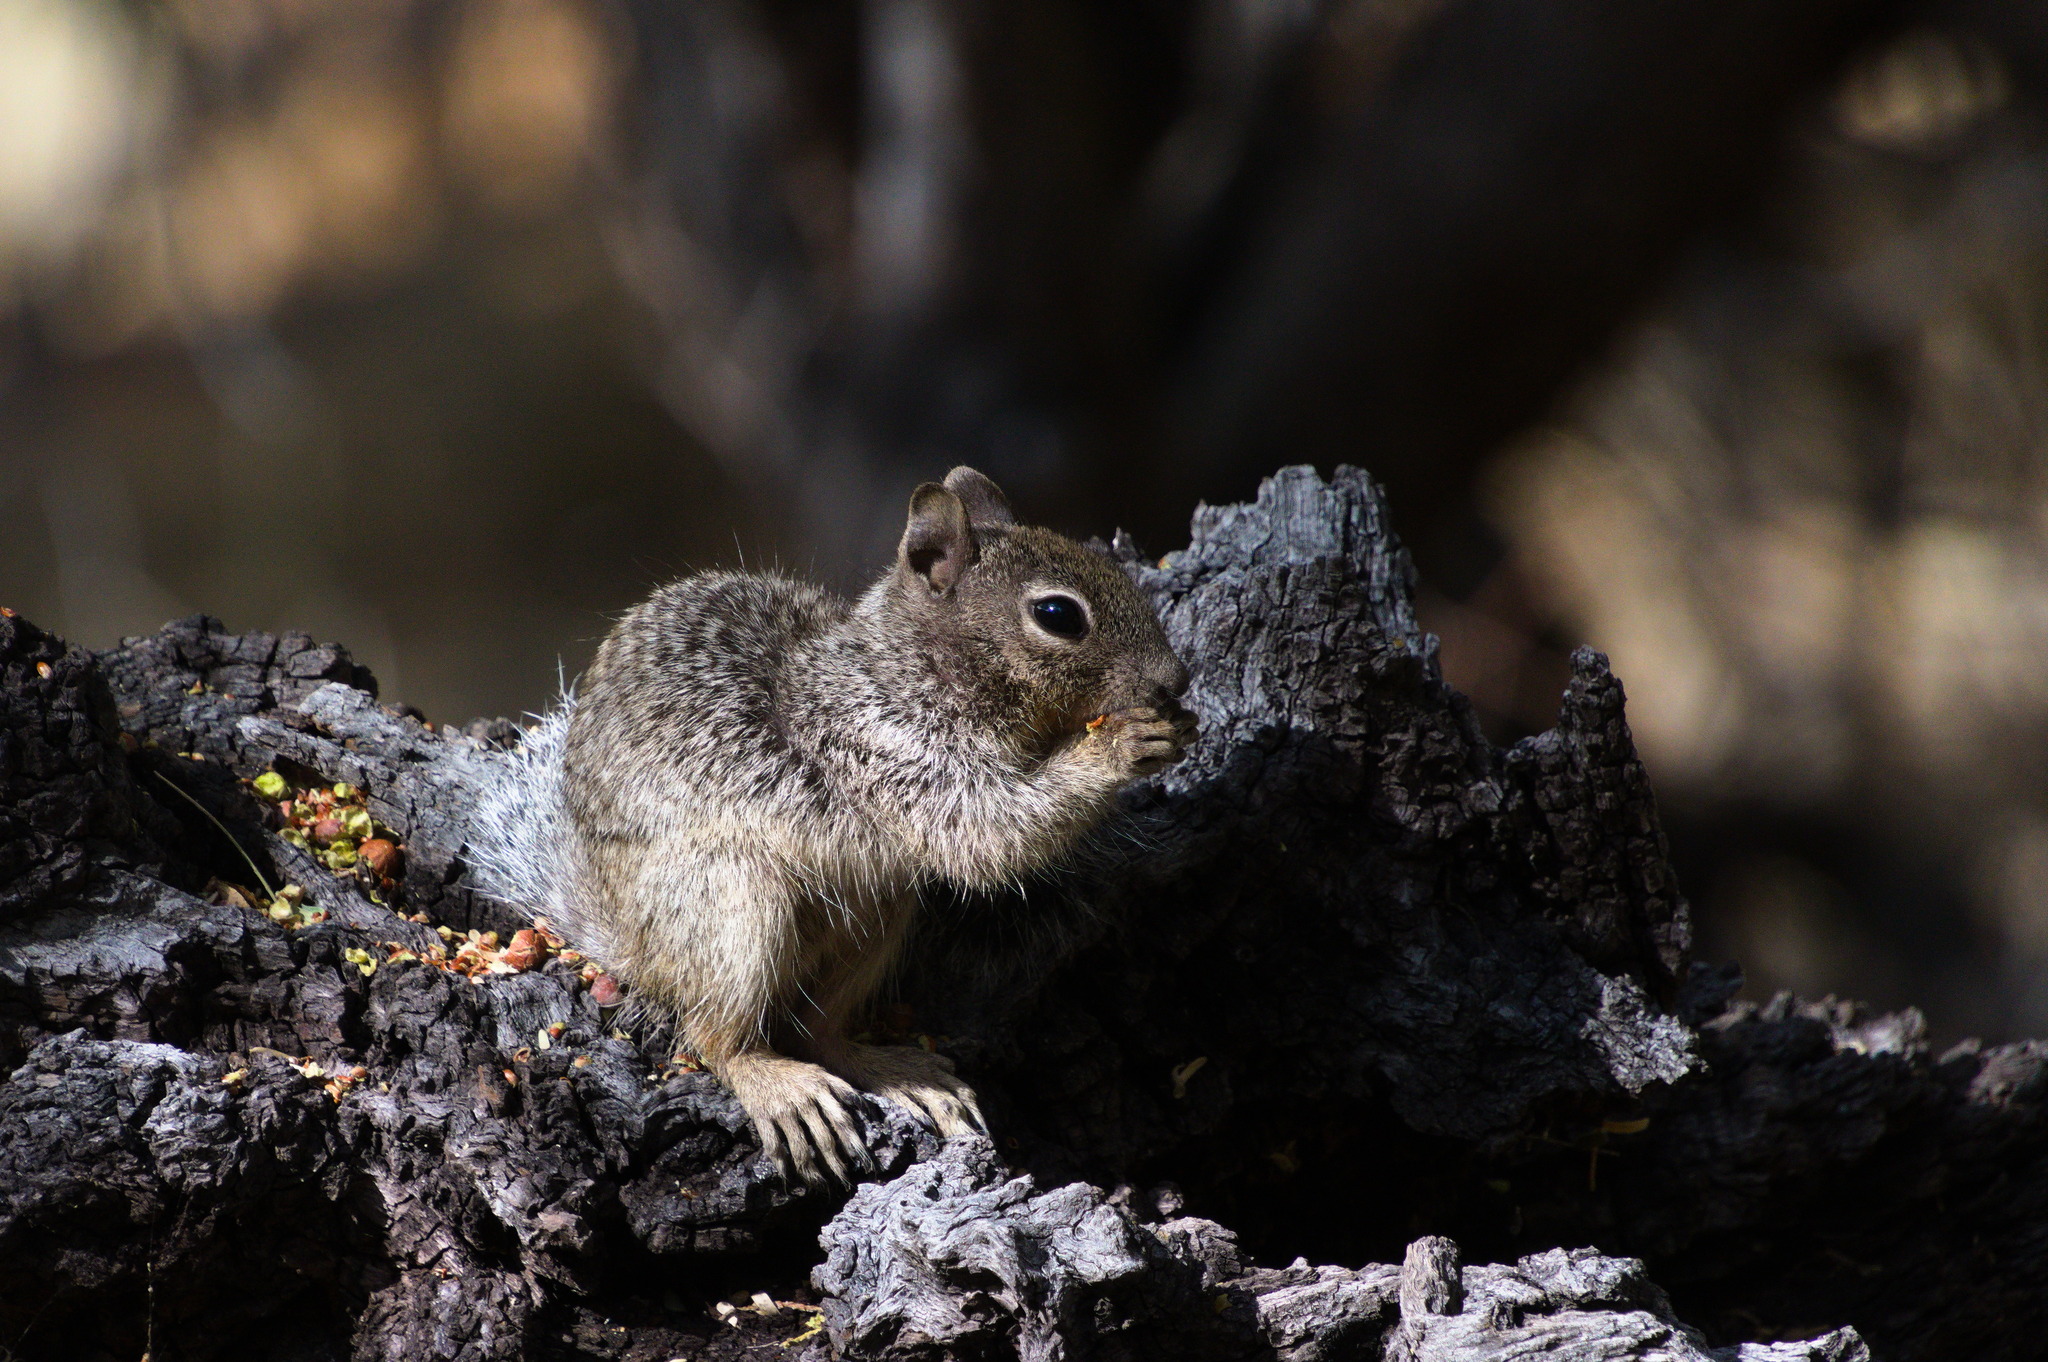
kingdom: Animalia
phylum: Chordata
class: Mammalia
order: Rodentia
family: Sciuridae
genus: Otospermophilus
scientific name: Otospermophilus variegatus
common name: Rock squirrel
